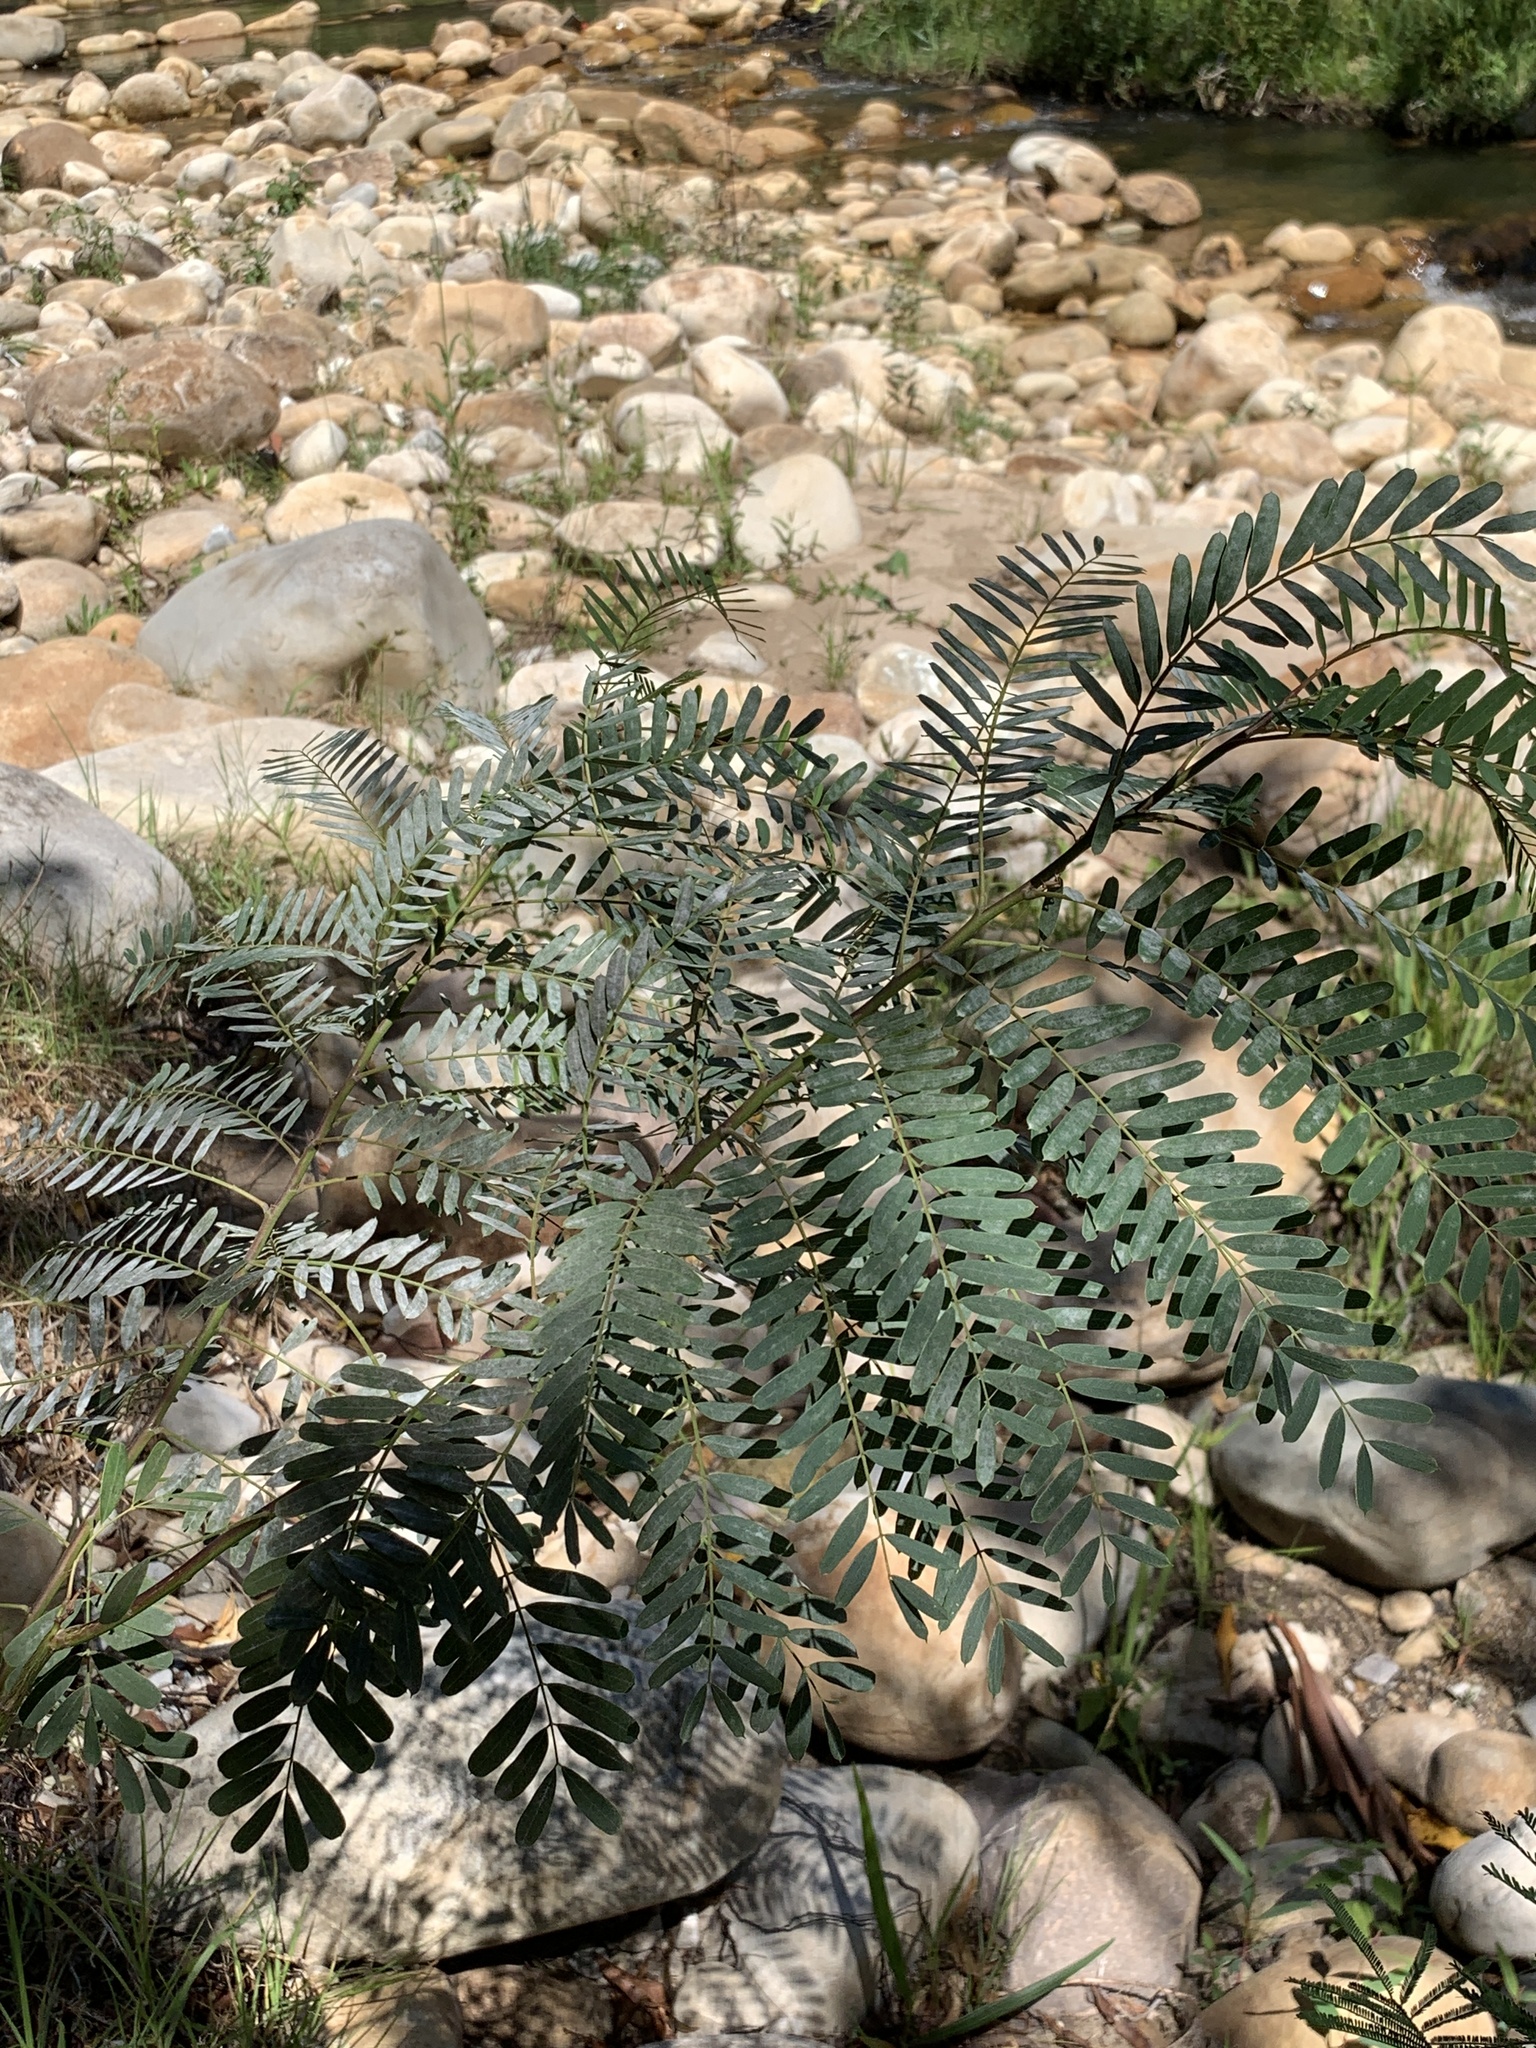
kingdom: Plantae
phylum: Tracheophyta
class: Magnoliopsida
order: Fabales
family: Fabaceae
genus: Sesbania
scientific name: Sesbania punicea
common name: Rattlebox
